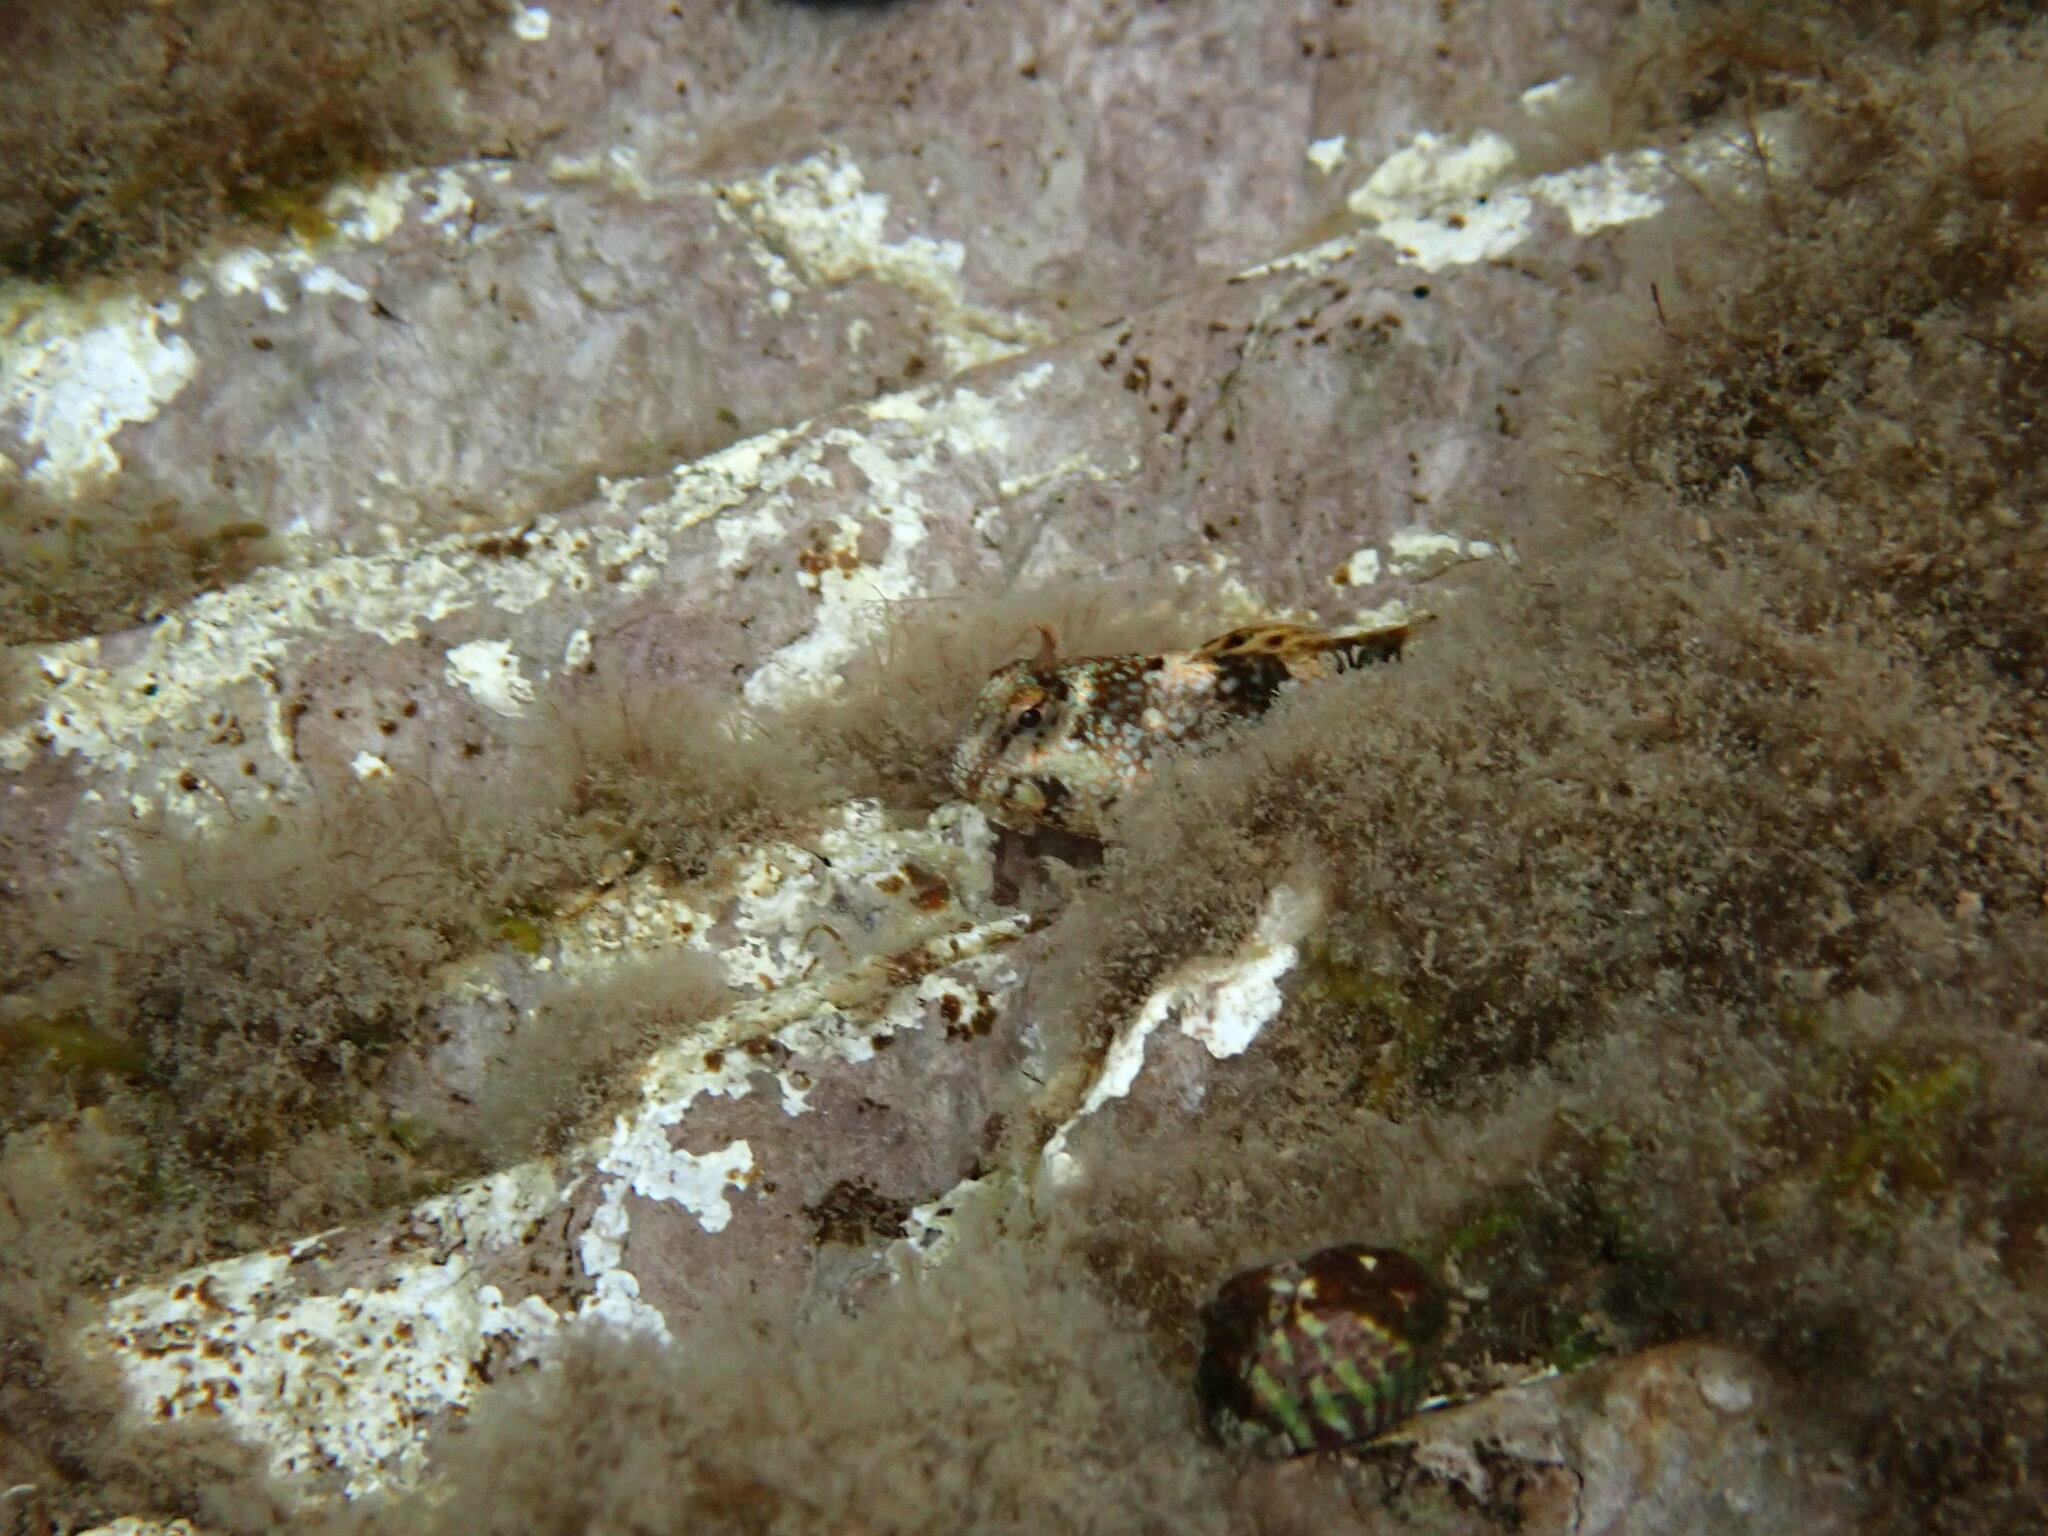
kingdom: Animalia
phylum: Chordata
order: Perciformes
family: Blenniidae
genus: Coryphoblennius
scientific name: Coryphoblennius galerita
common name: Montagu's blenny
